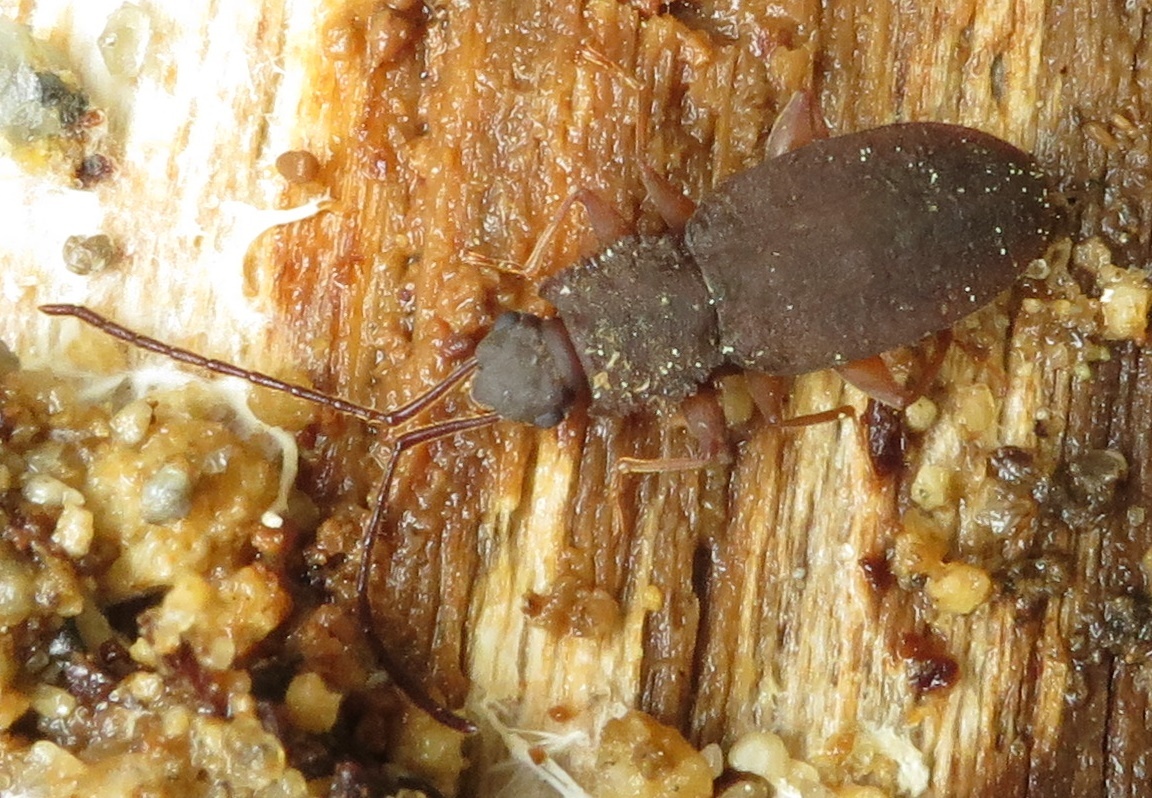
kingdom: Animalia
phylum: Arthropoda
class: Insecta
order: Coleoptera
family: Silvanidae
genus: Brontopriscus
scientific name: Brontopriscus
